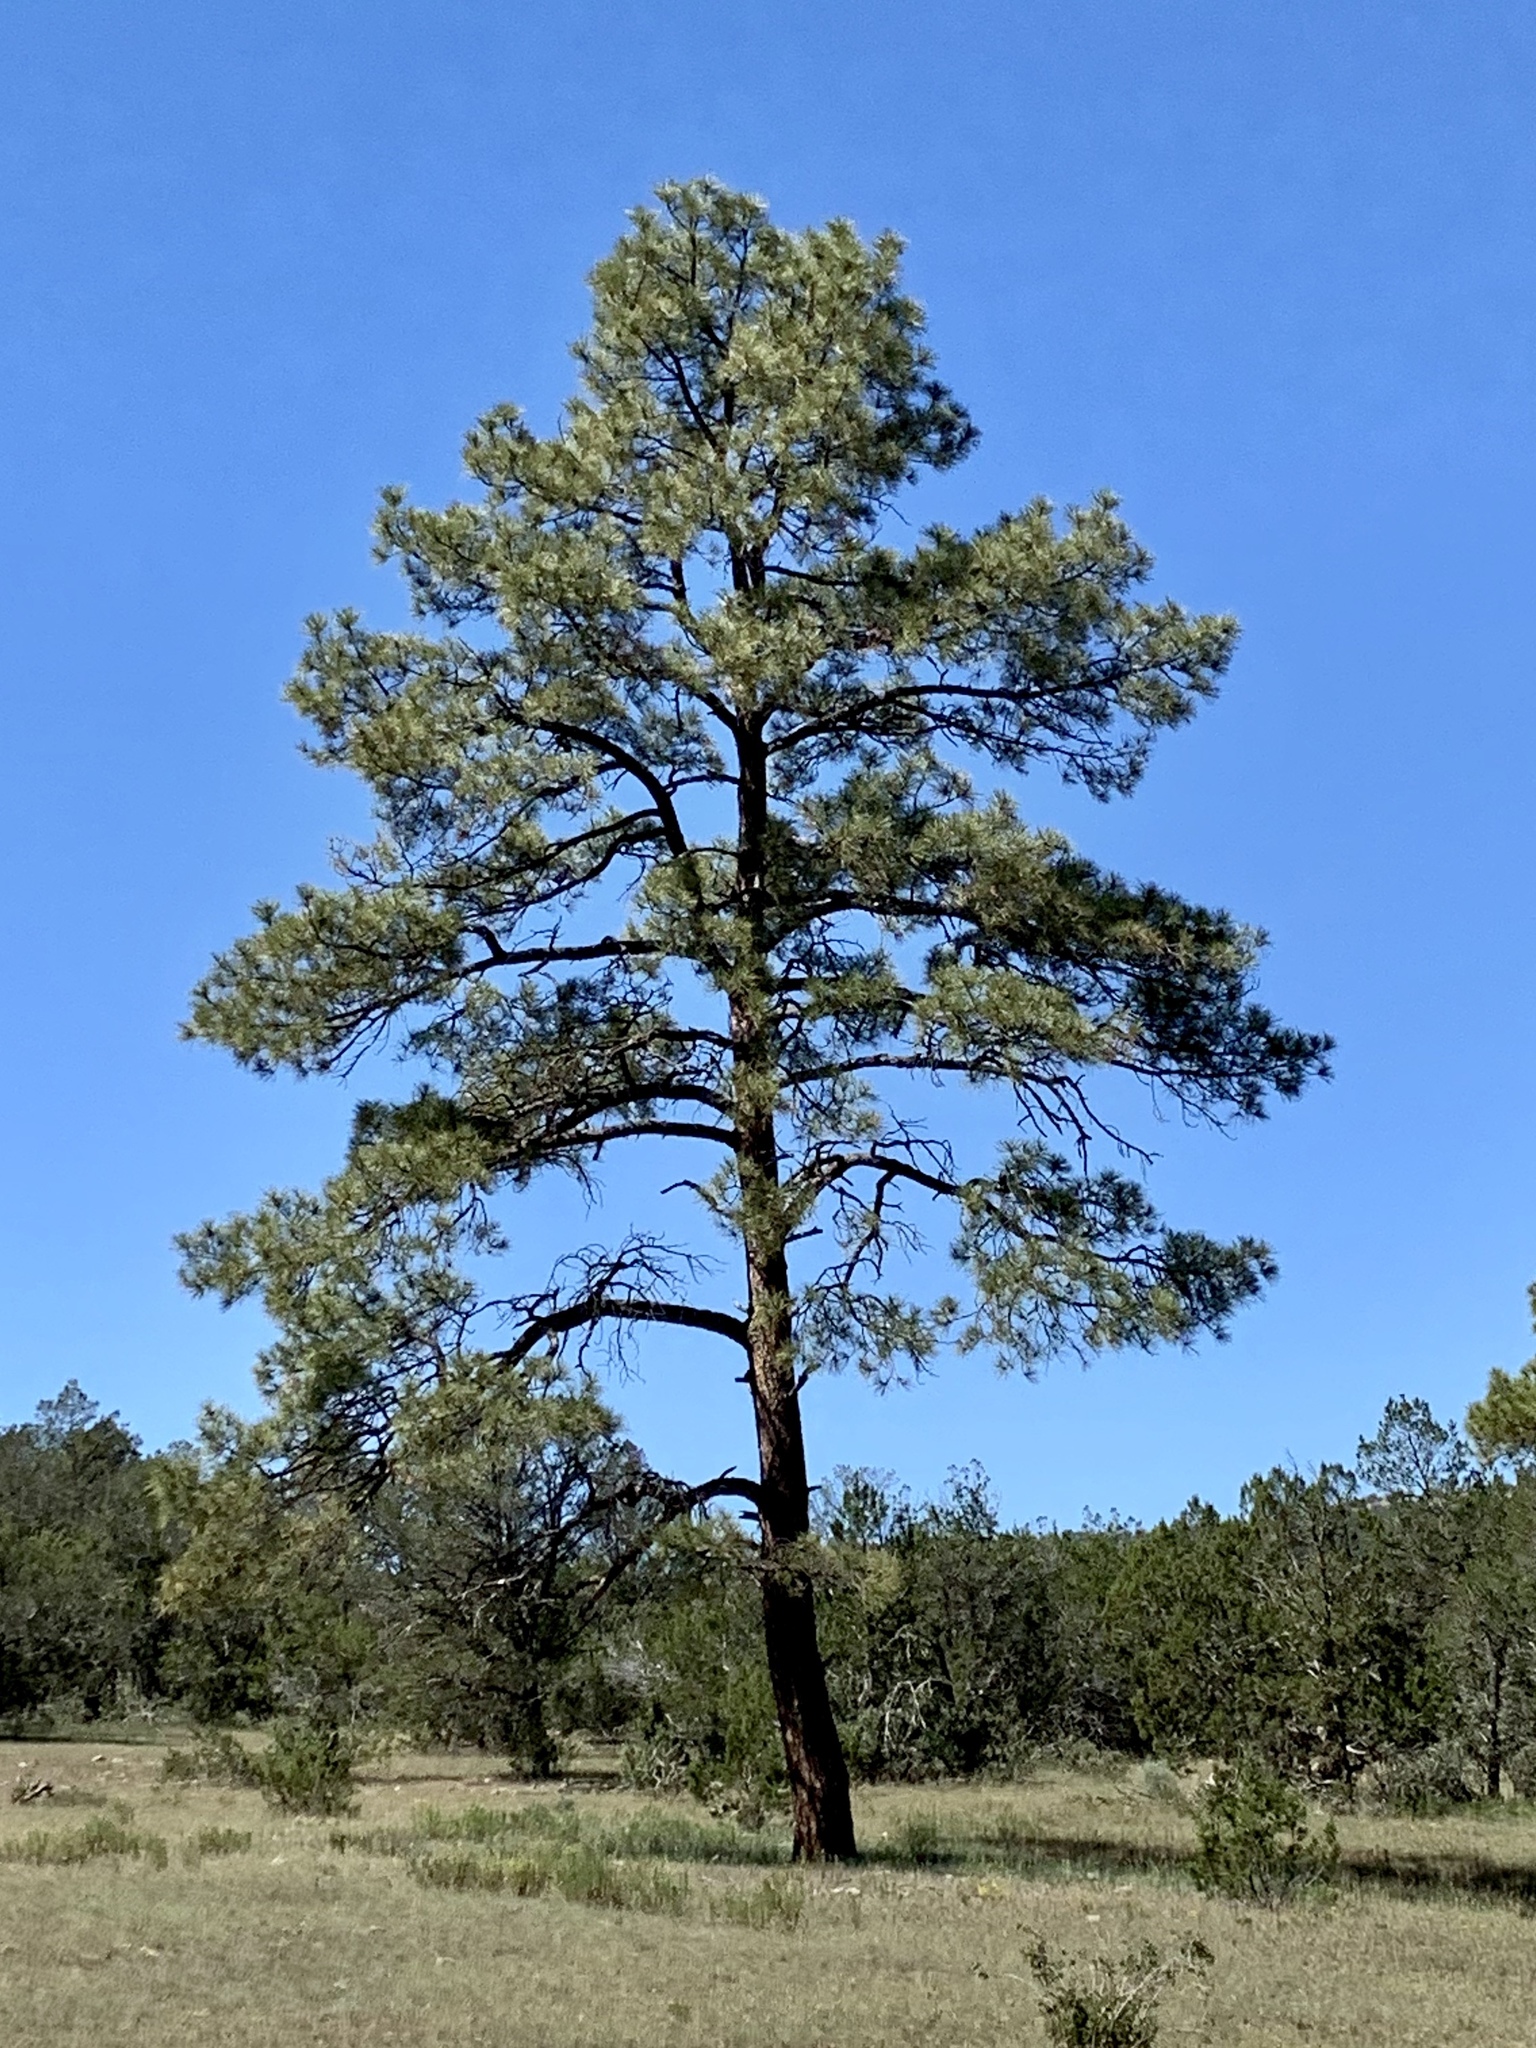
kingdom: Plantae
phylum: Tracheophyta
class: Pinopsida
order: Pinales
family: Pinaceae
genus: Pinus
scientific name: Pinus ponderosa
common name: Western yellow-pine
